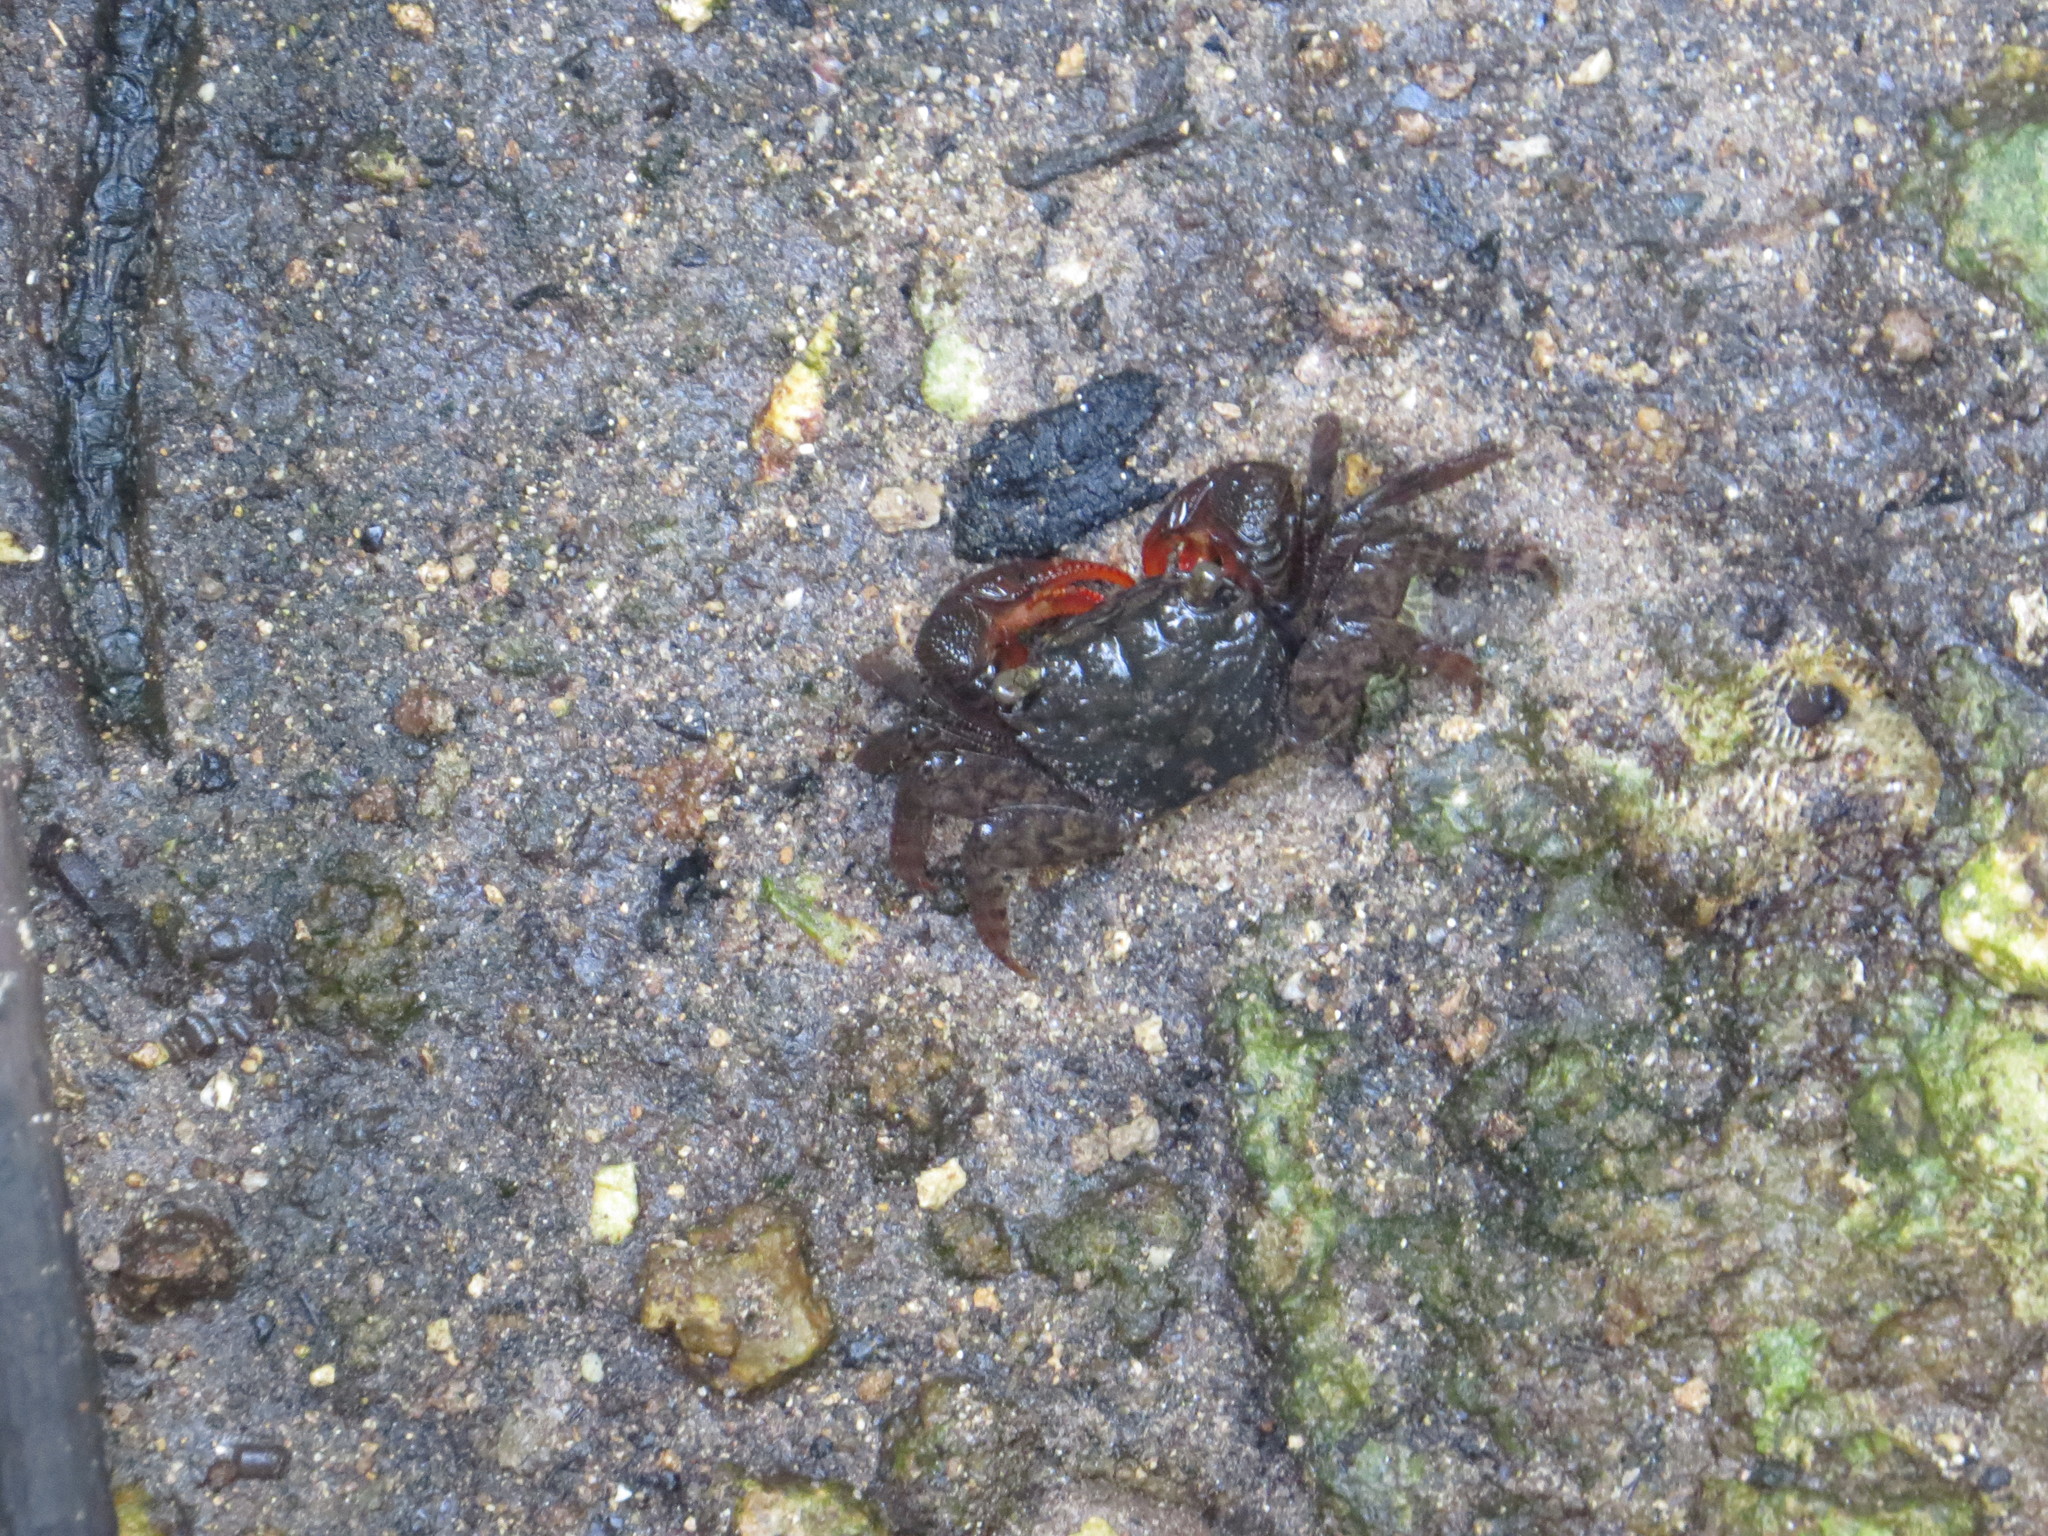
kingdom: Animalia
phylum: Arthropoda
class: Malacostraca
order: Decapoda
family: Sesarmidae
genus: Parasesarma
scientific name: Parasesarma guttatum
